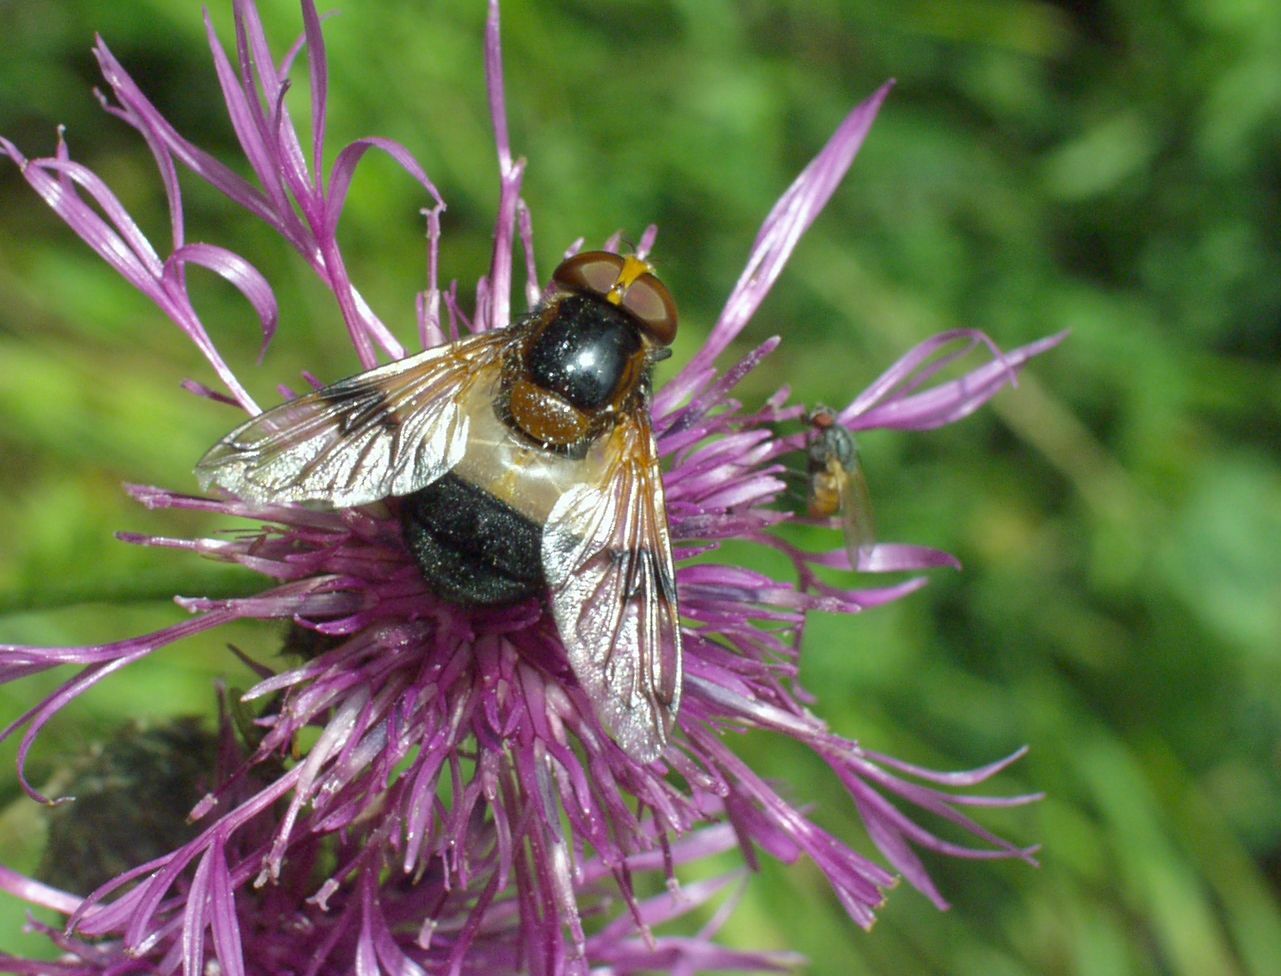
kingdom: Animalia
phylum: Arthropoda
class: Insecta
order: Diptera
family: Syrphidae
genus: Volucella
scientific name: Volucella pellucens
